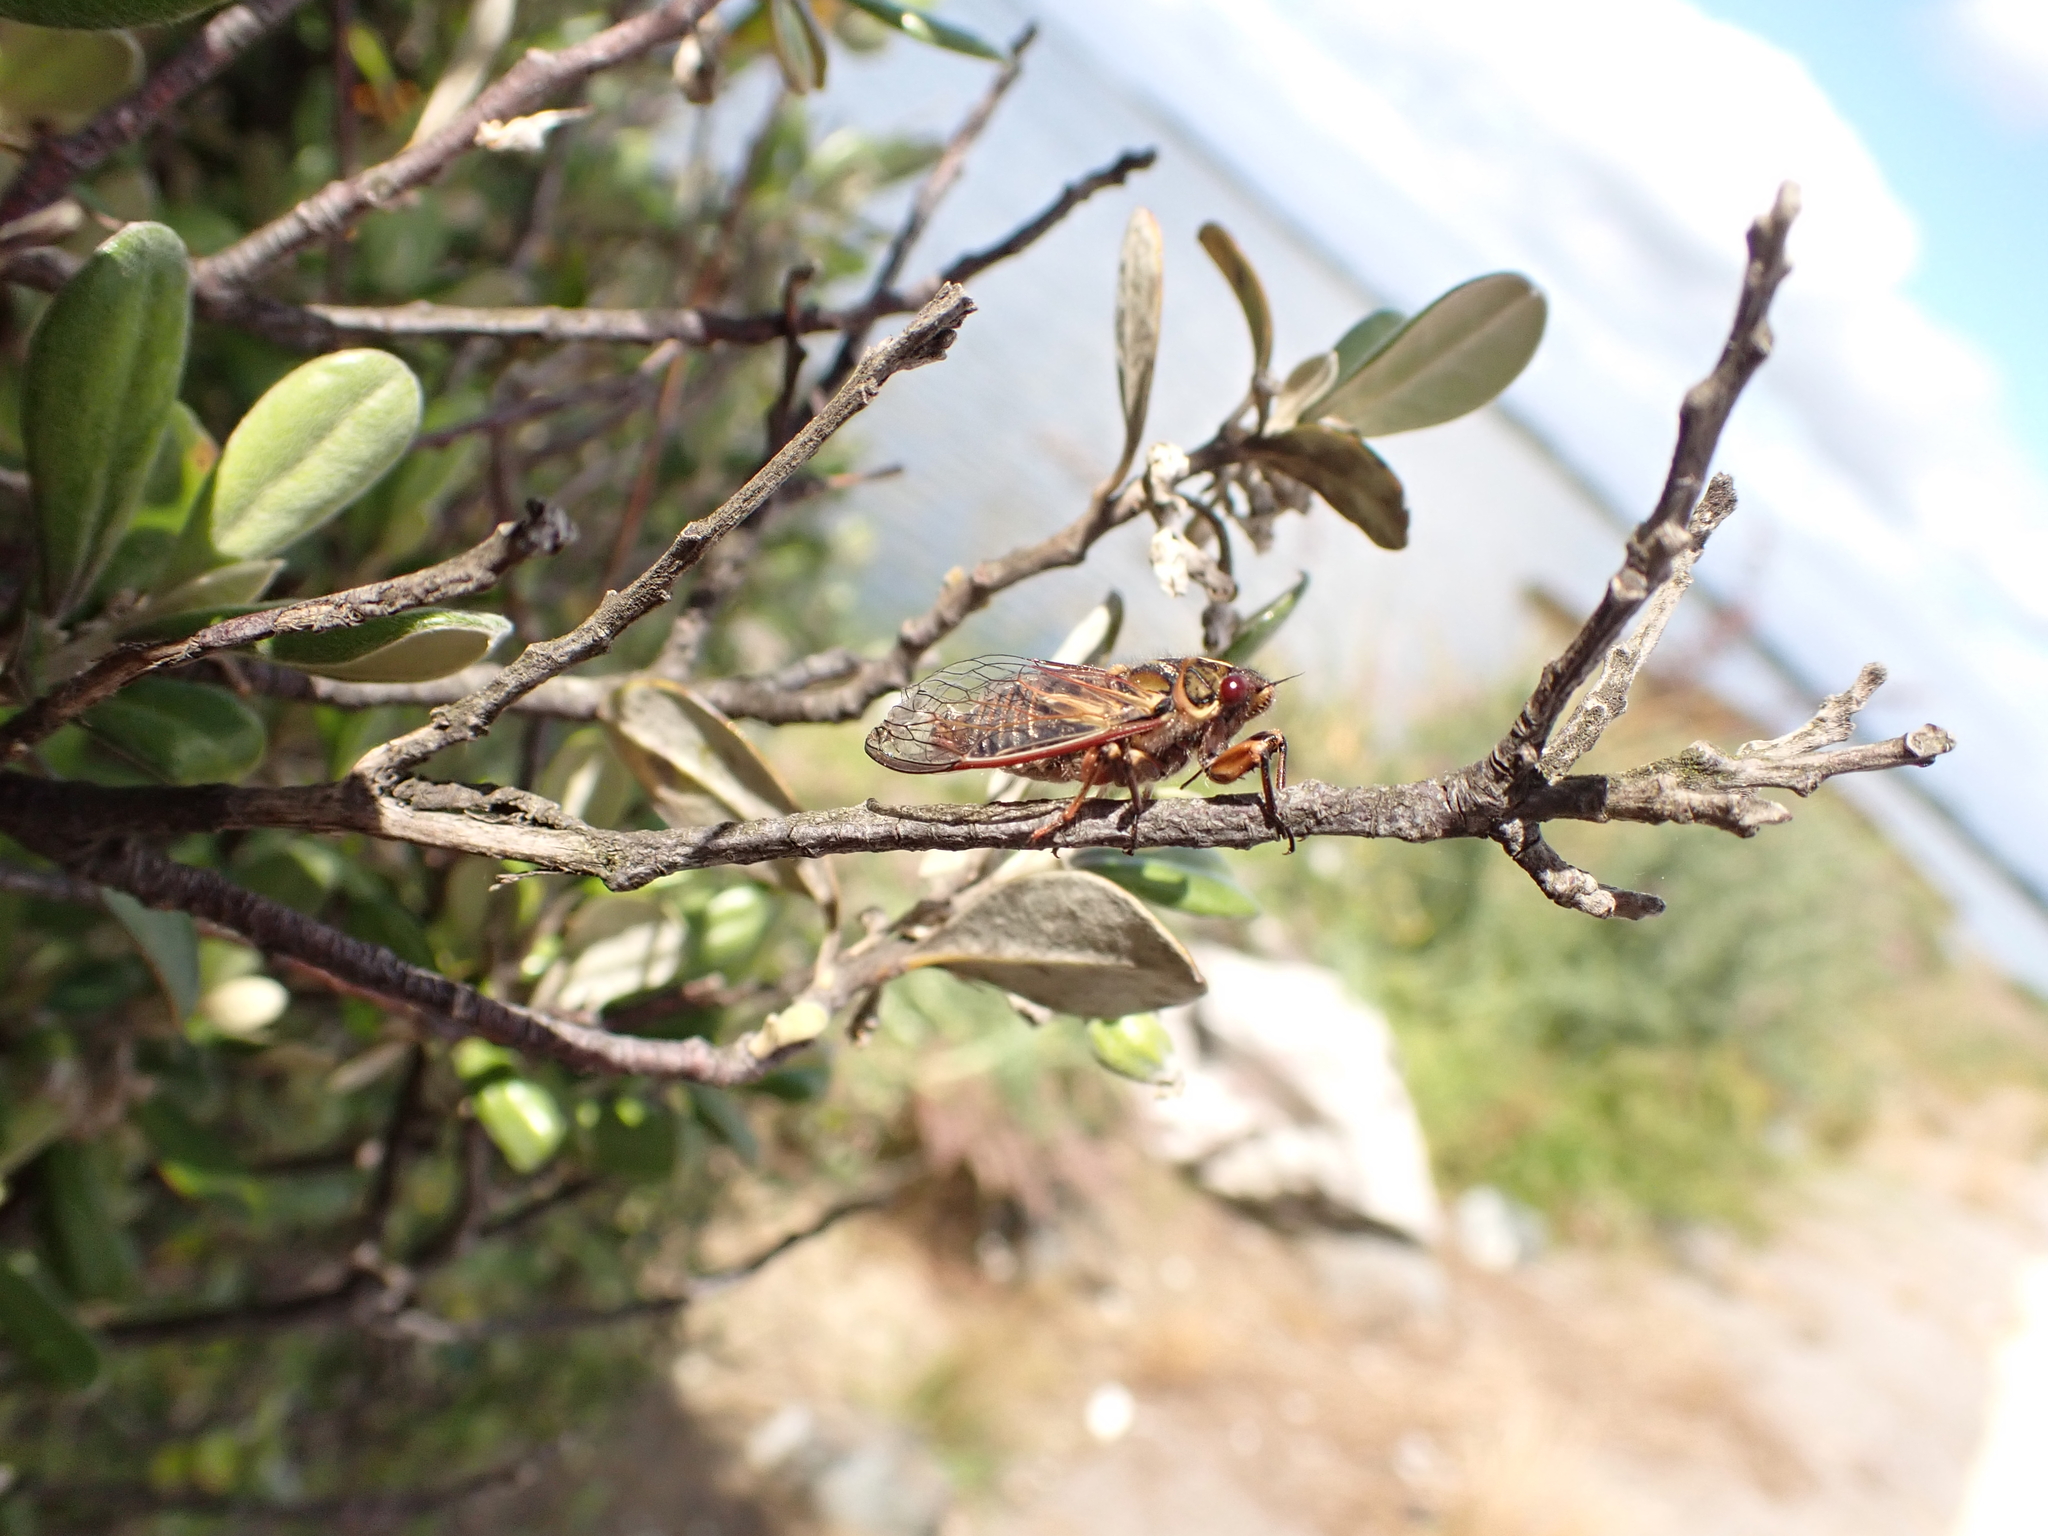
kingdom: Animalia
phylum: Arthropoda
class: Insecta
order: Hemiptera
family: Cicadidae
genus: Kikihia
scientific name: Kikihia rosea
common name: Murihiku cicada
